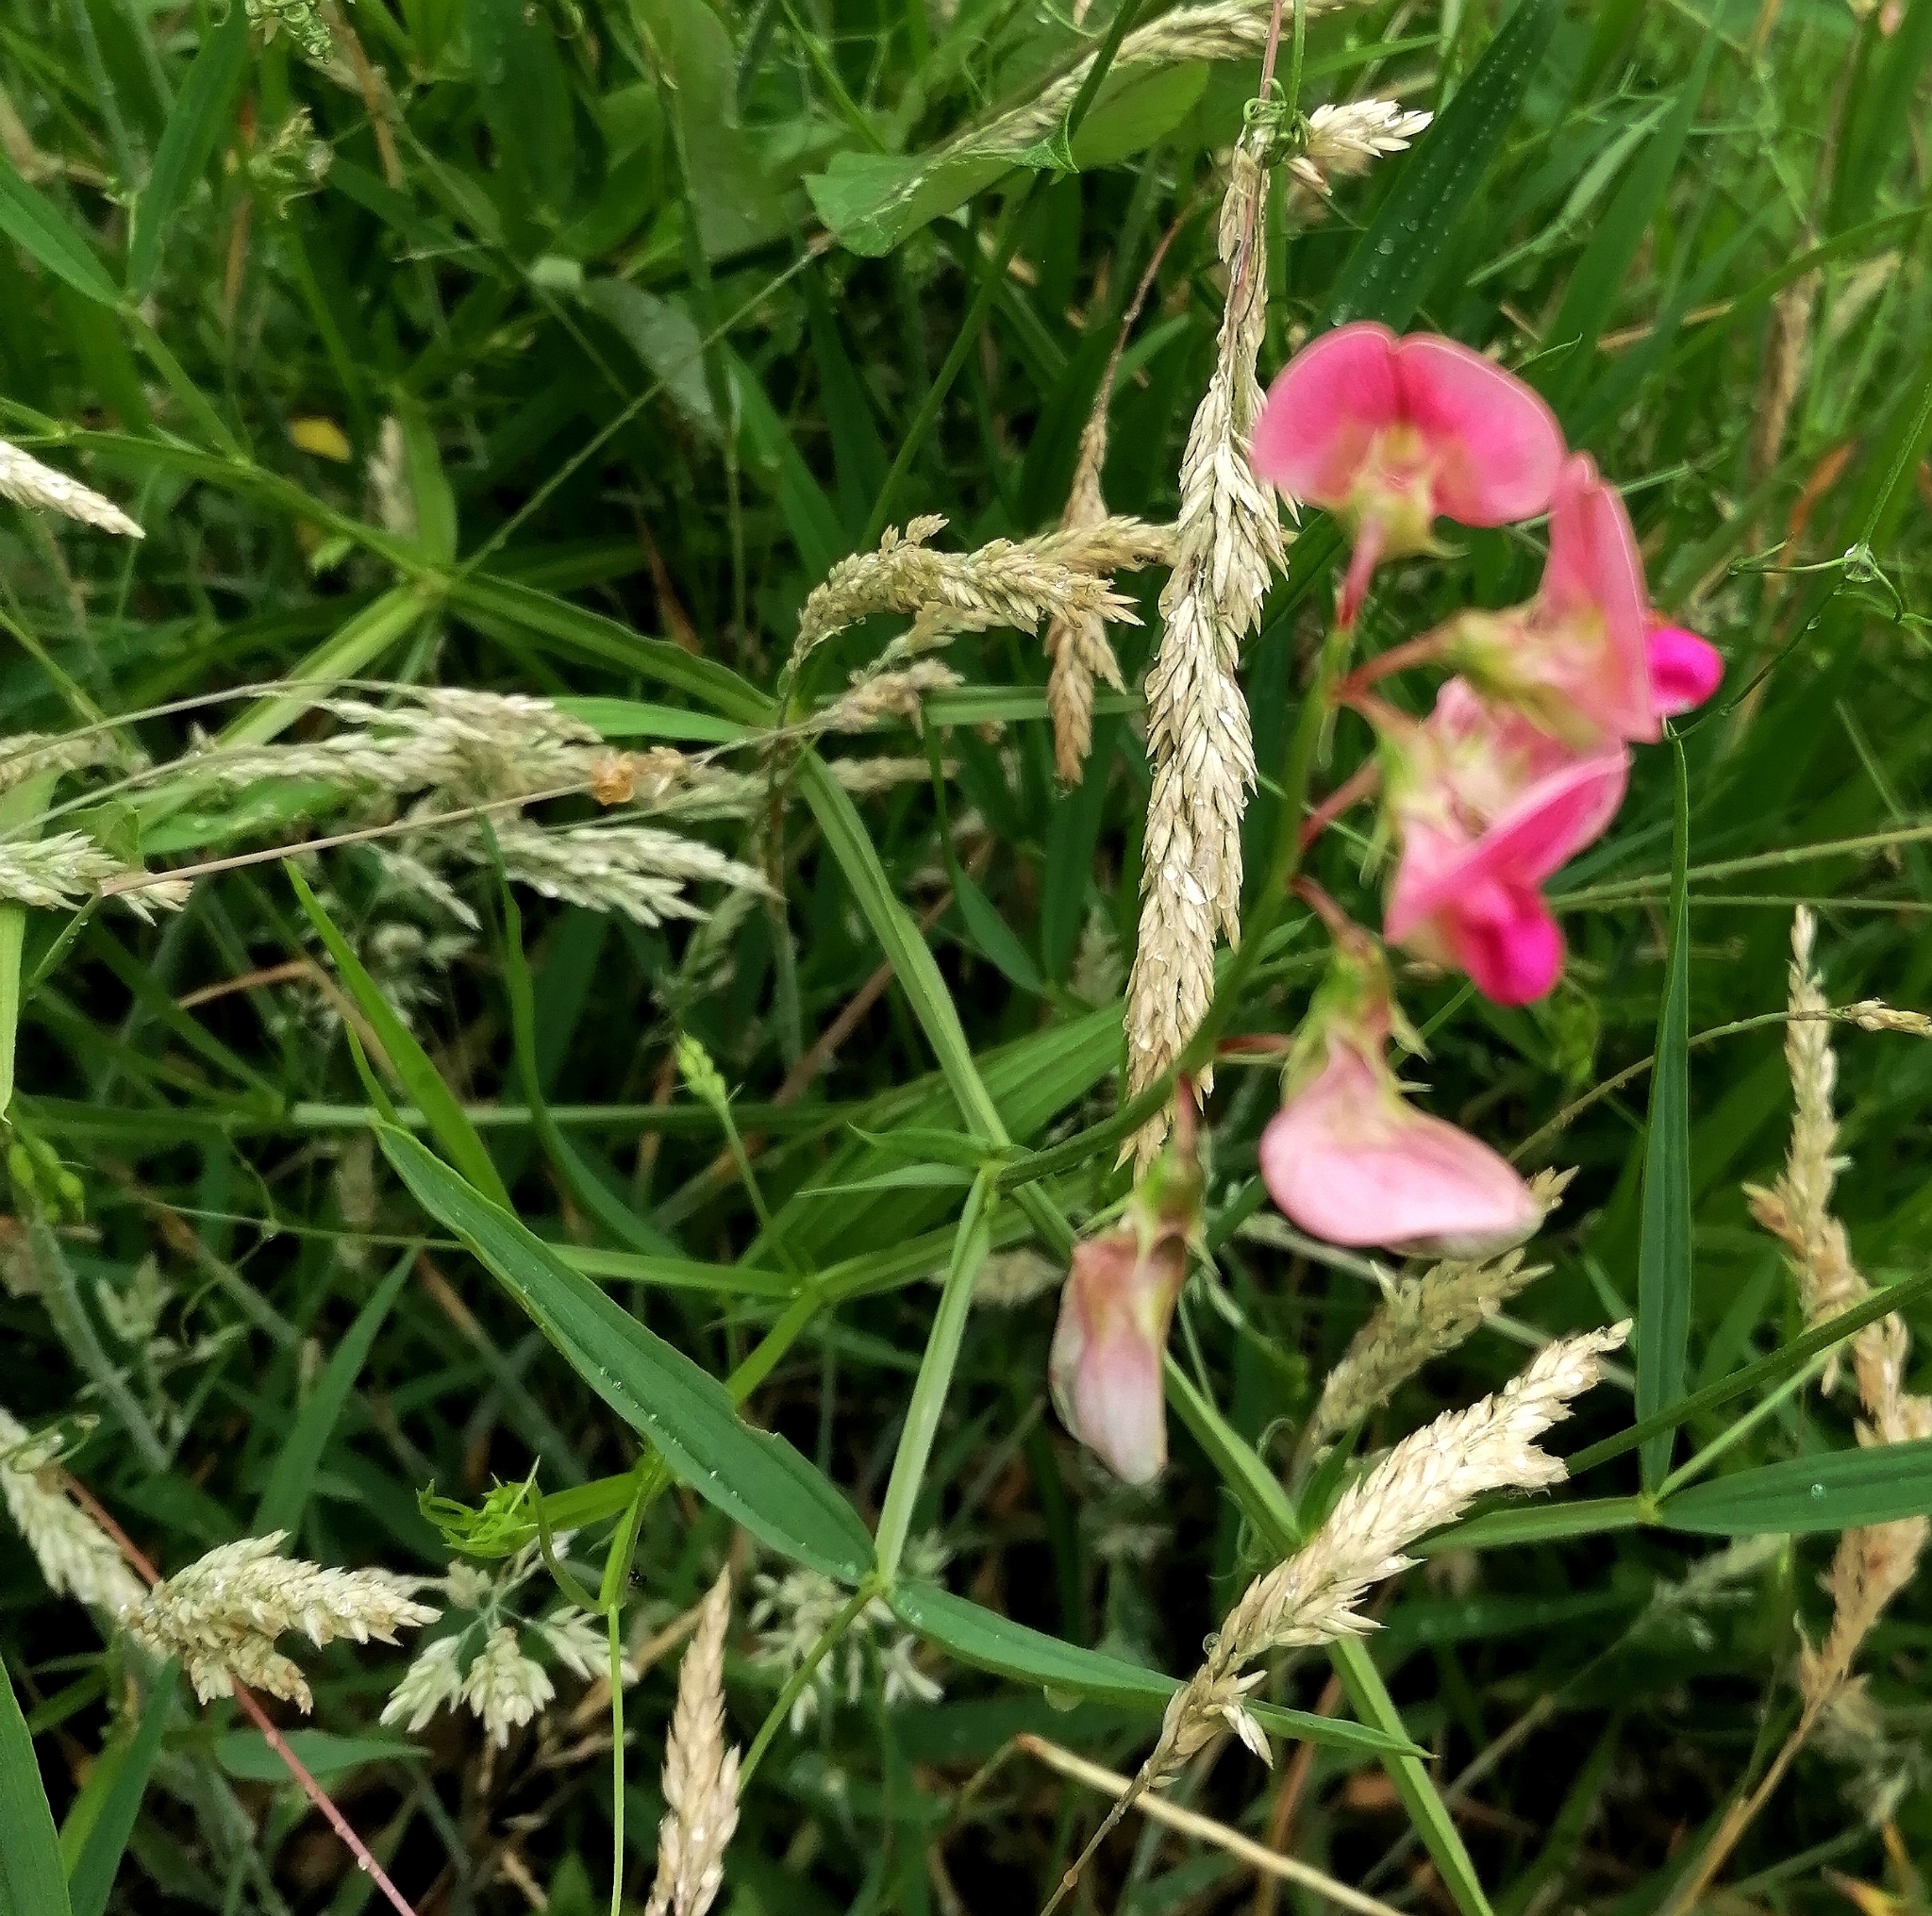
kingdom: Plantae
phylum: Tracheophyta
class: Magnoliopsida
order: Fabales
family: Fabaceae
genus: Lathyrus
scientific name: Lathyrus sylvestris
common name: Flat pea
